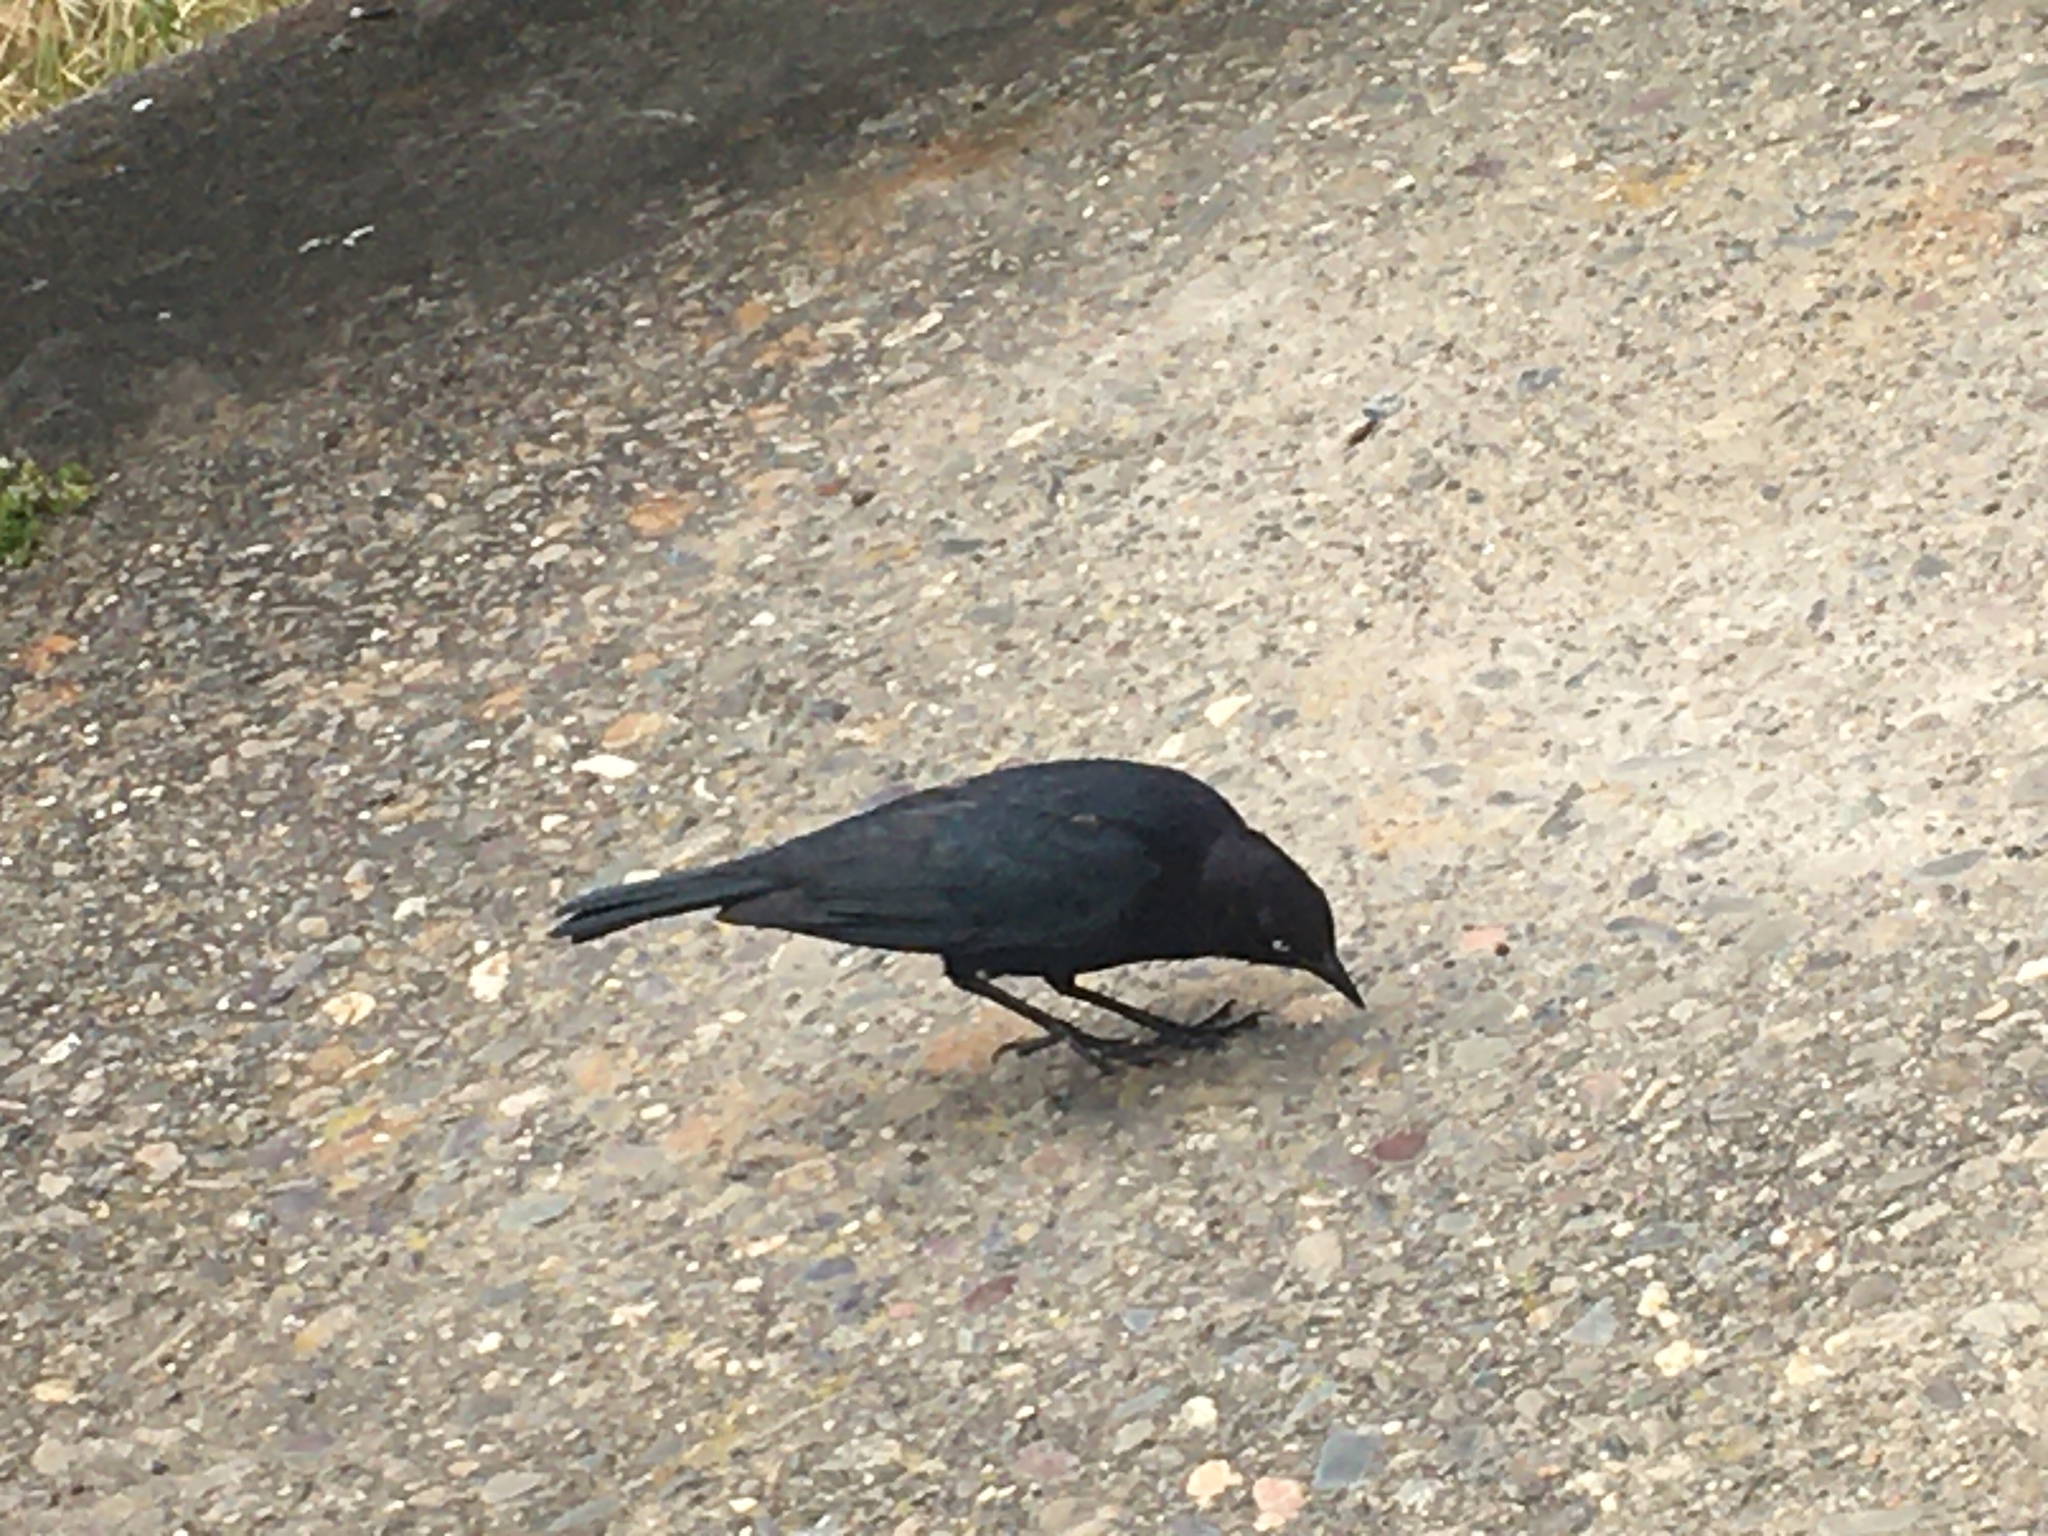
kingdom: Animalia
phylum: Chordata
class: Aves
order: Passeriformes
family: Icteridae
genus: Euphagus
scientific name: Euphagus cyanocephalus
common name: Brewer's blackbird
